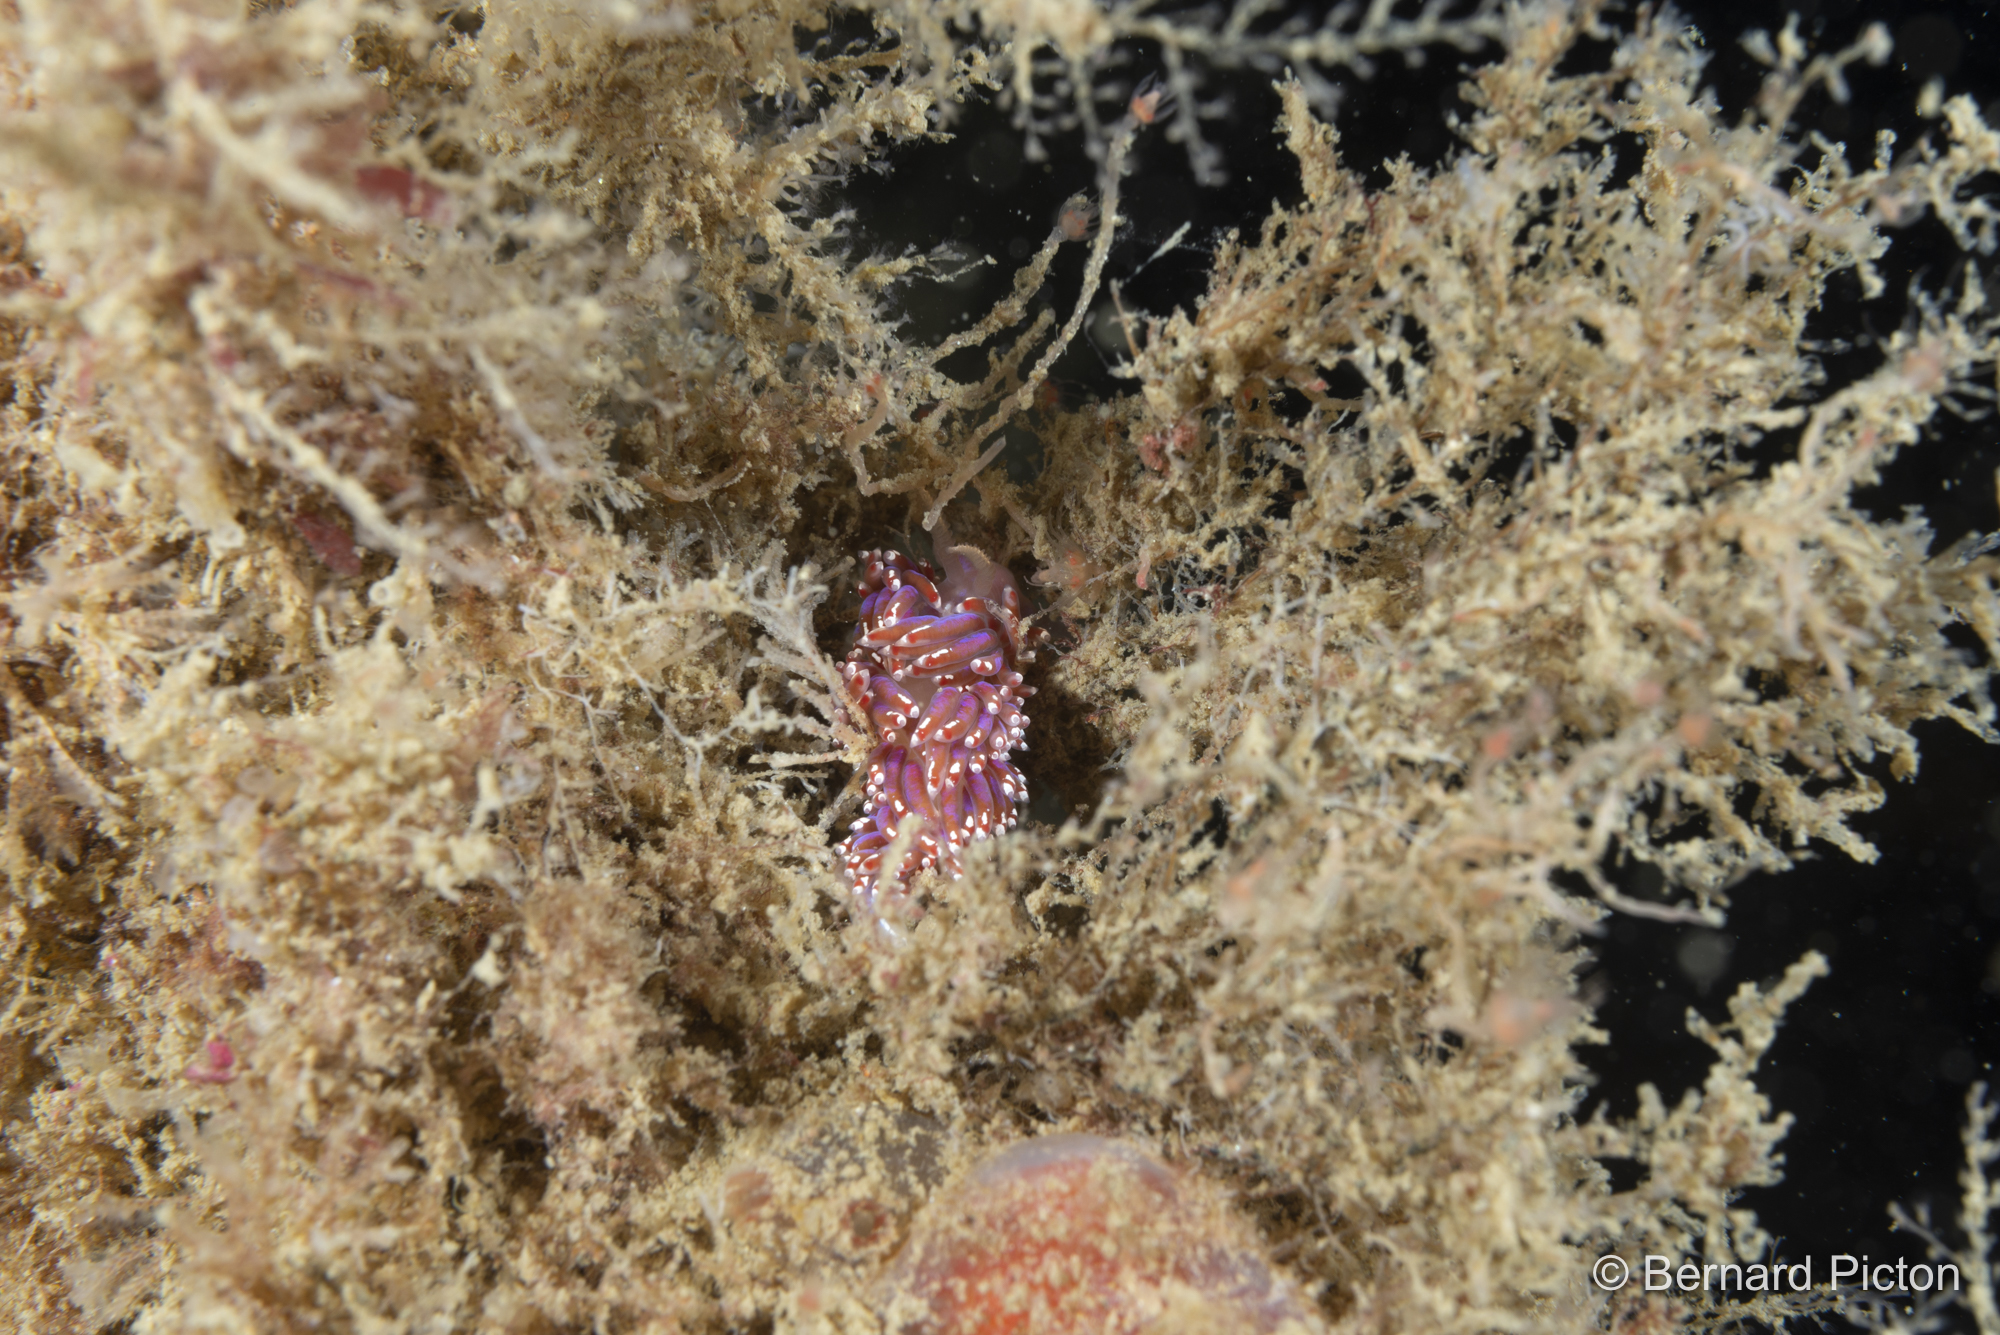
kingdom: Animalia
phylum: Mollusca
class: Gastropoda
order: Nudibranchia
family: Facelinidae
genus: Facelina
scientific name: Facelina auriculata
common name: Slender facelina
